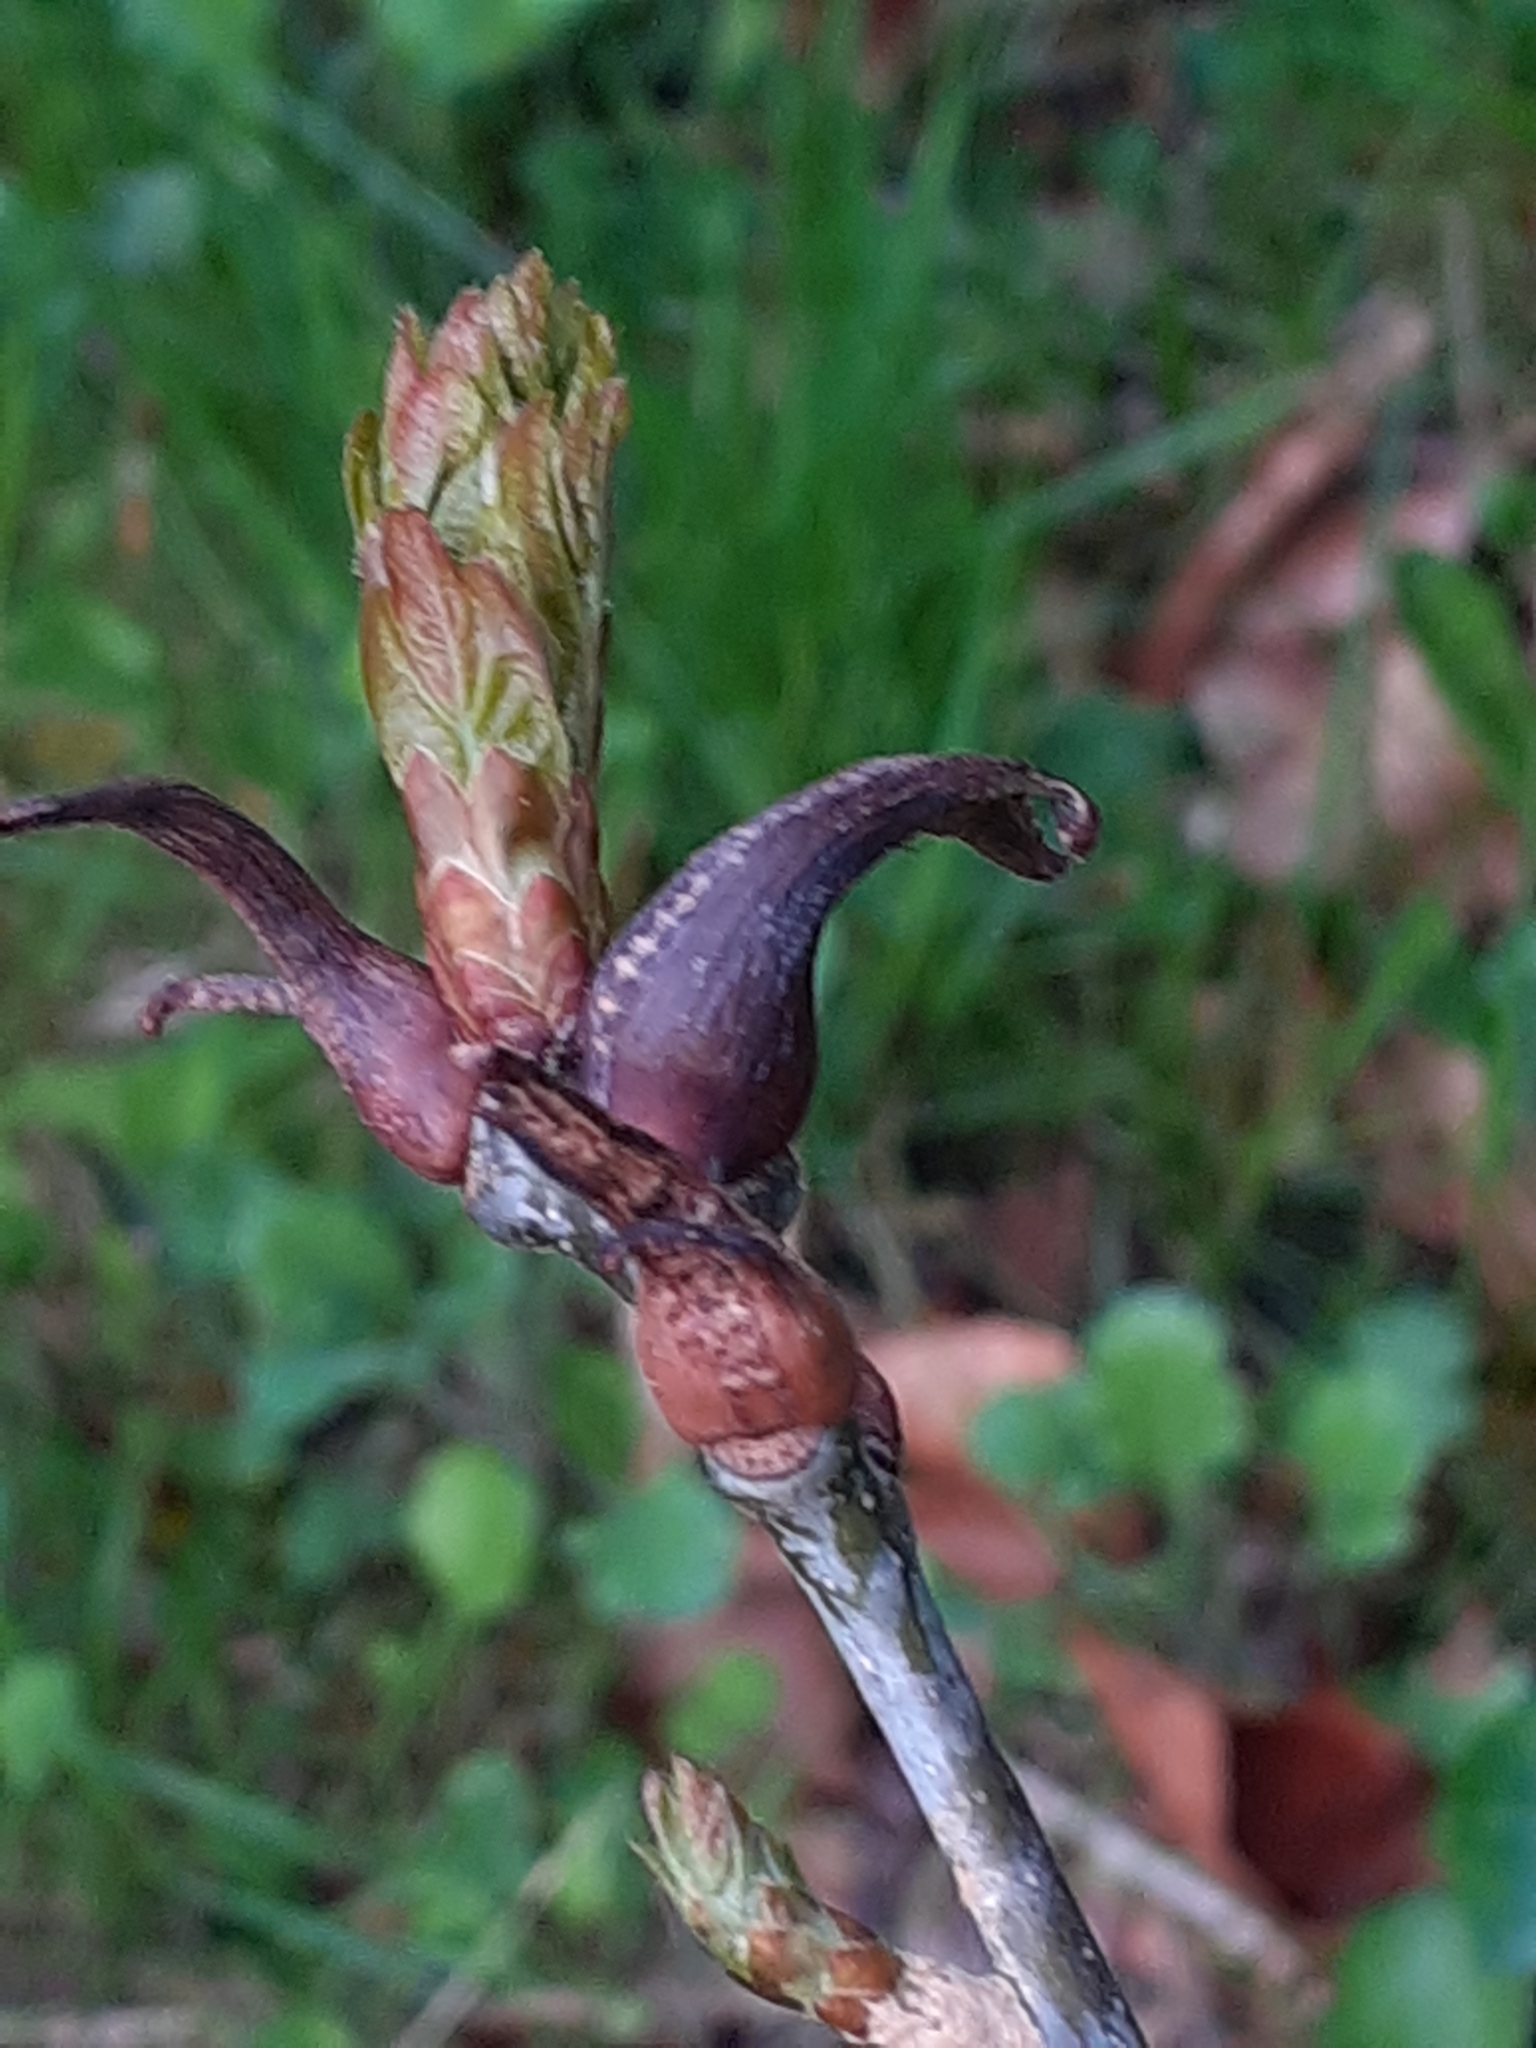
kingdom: Animalia
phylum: Arthropoda
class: Insecta
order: Hymenoptera
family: Cynipidae
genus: Andricus
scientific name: Andricus aries
